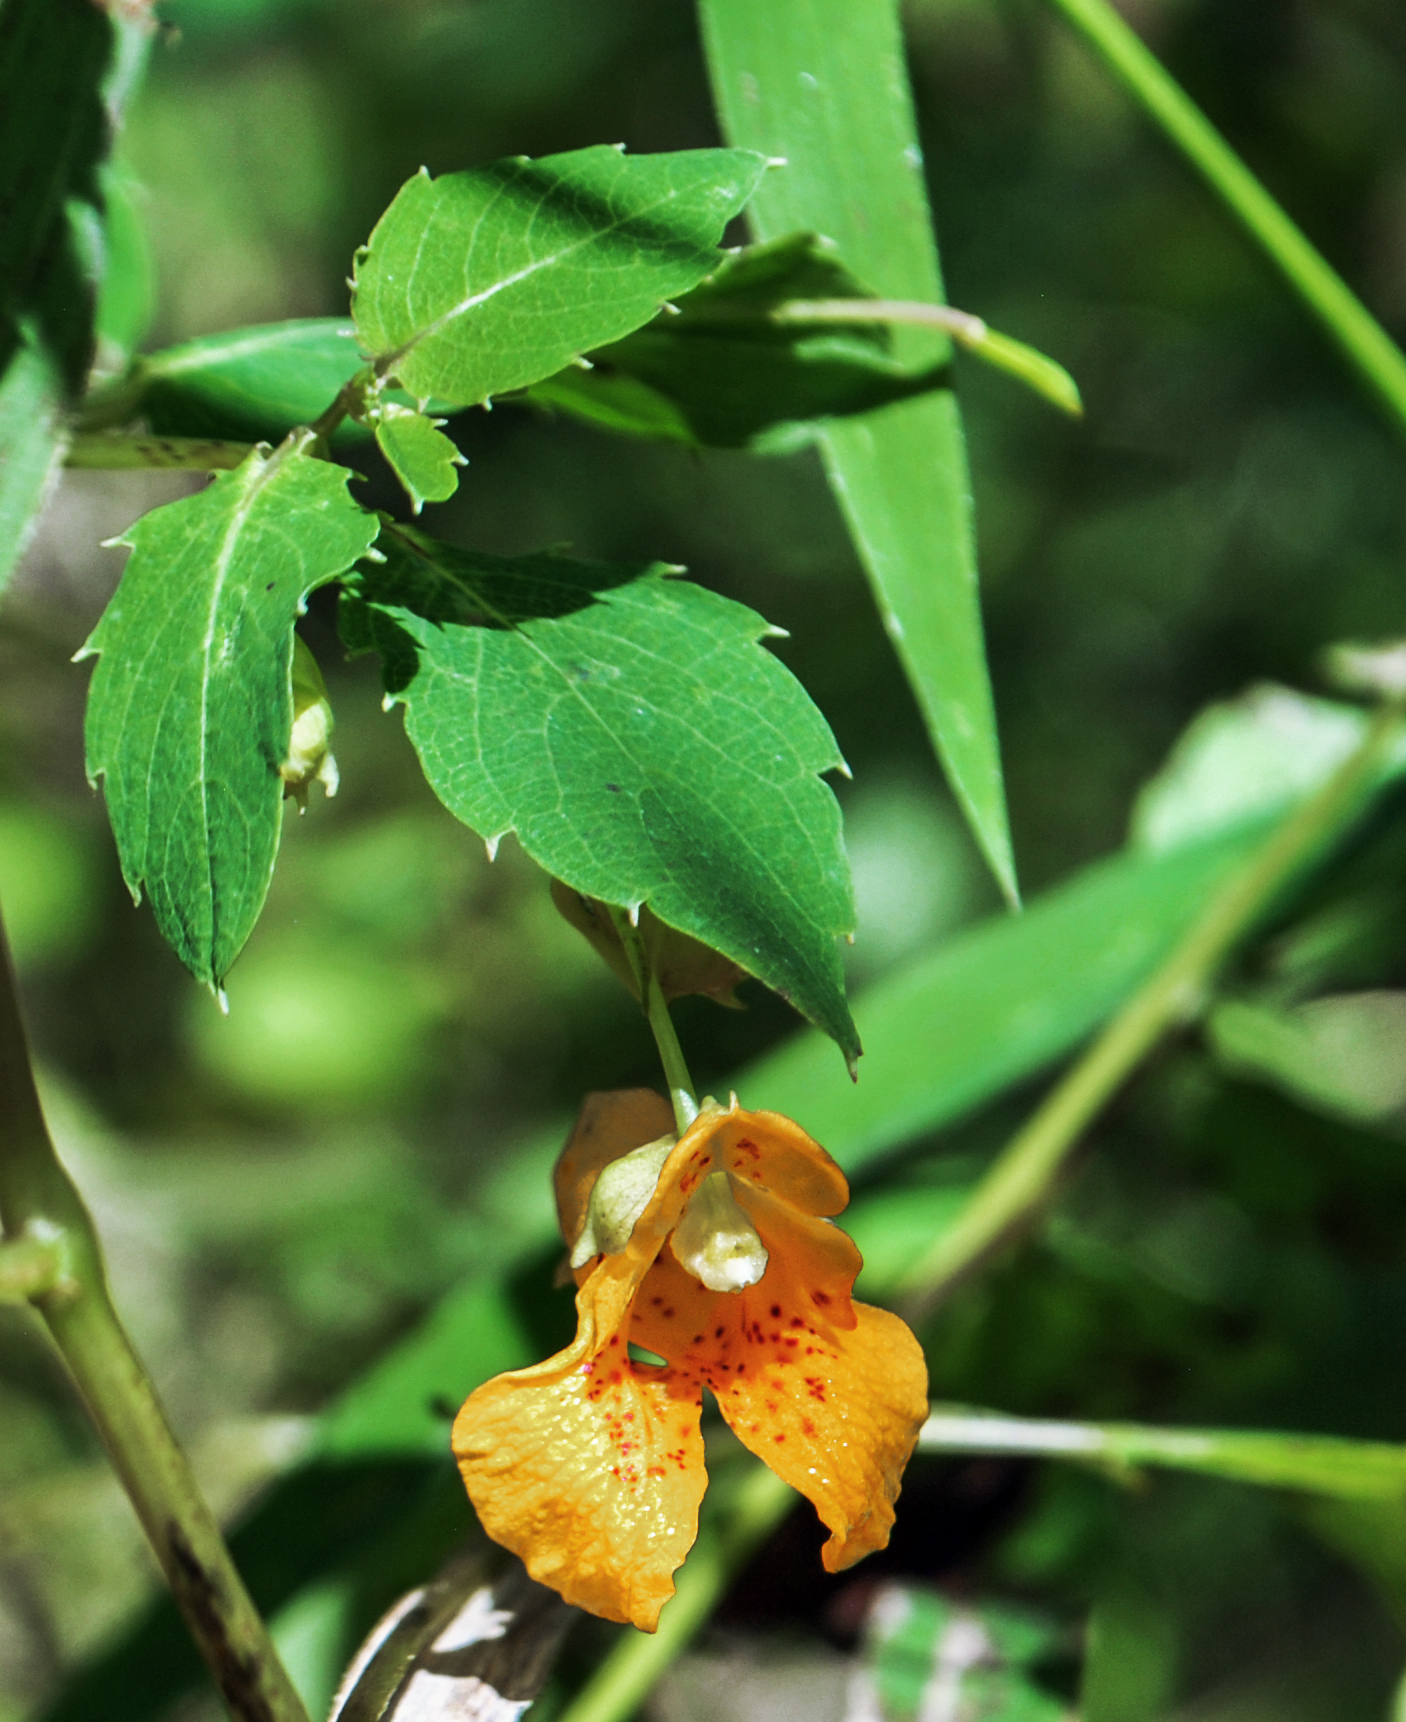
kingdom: Plantae
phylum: Tracheophyta
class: Magnoliopsida
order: Ericales
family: Balsaminaceae
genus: Impatiens
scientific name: Impatiens capensis
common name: Orange balsam
